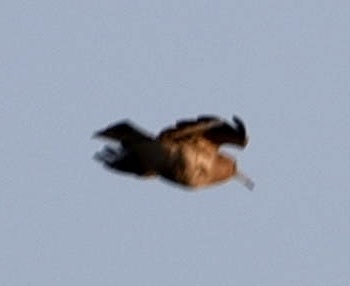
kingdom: Animalia
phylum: Chordata
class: Aves
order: Bucerotiformes
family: Upupidae
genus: Upupa
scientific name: Upupa epops
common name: Eurasian hoopoe
